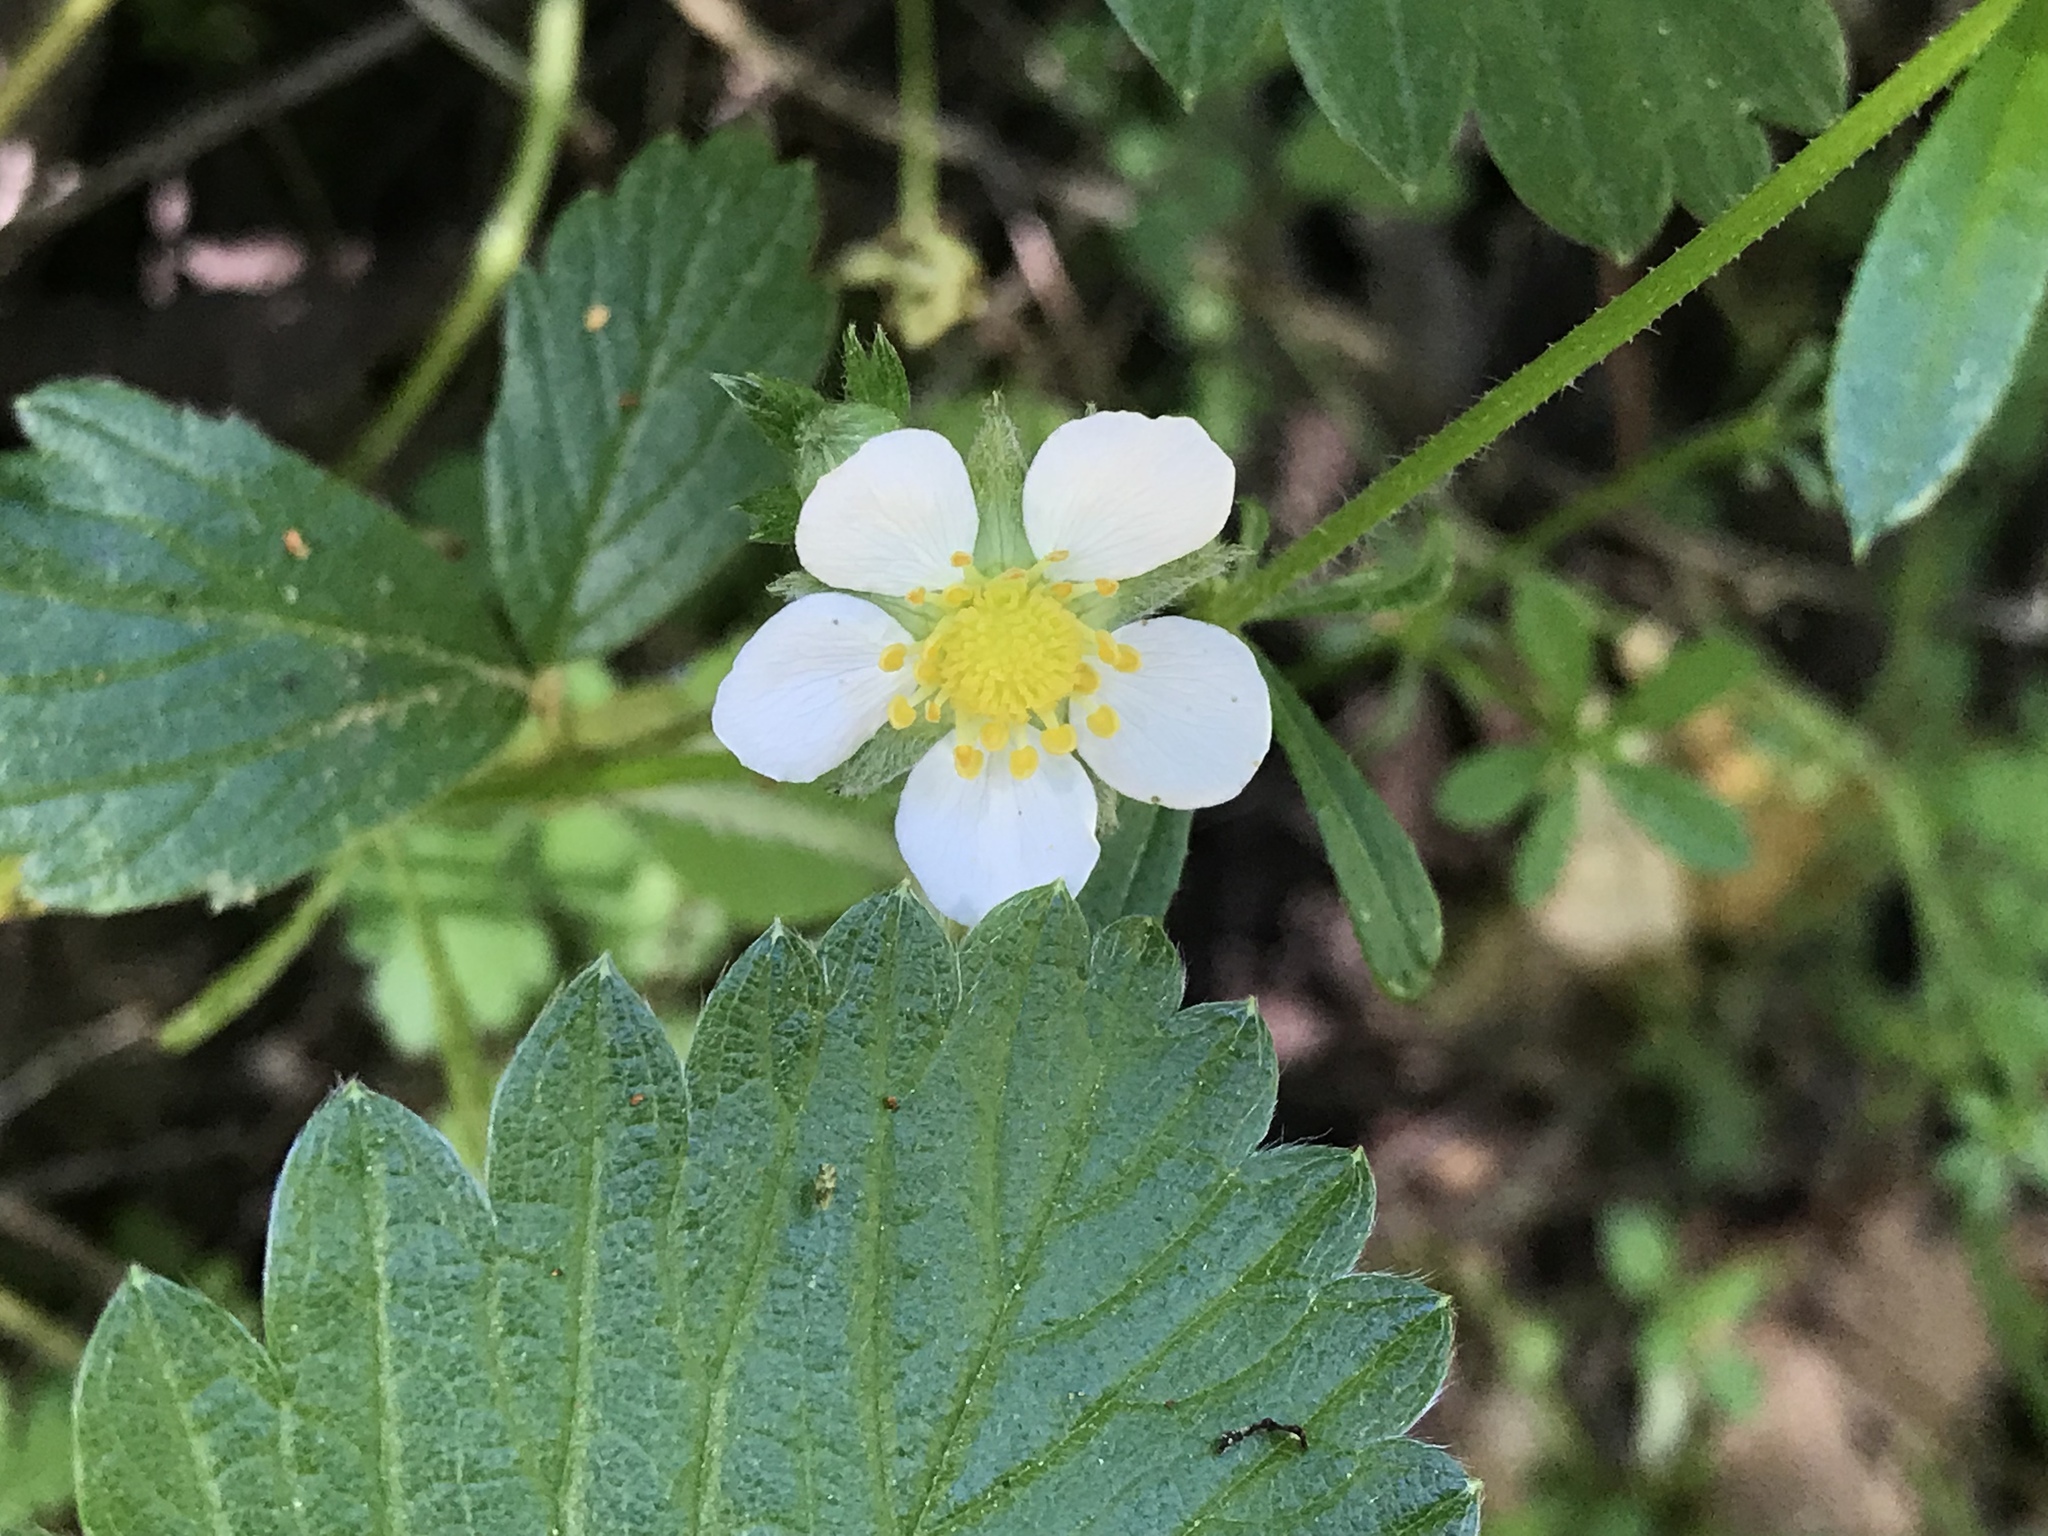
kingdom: Plantae
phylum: Tracheophyta
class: Magnoliopsida
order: Rosales
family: Rosaceae
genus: Fragaria
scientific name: Fragaria vesca
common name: Wild strawberry
